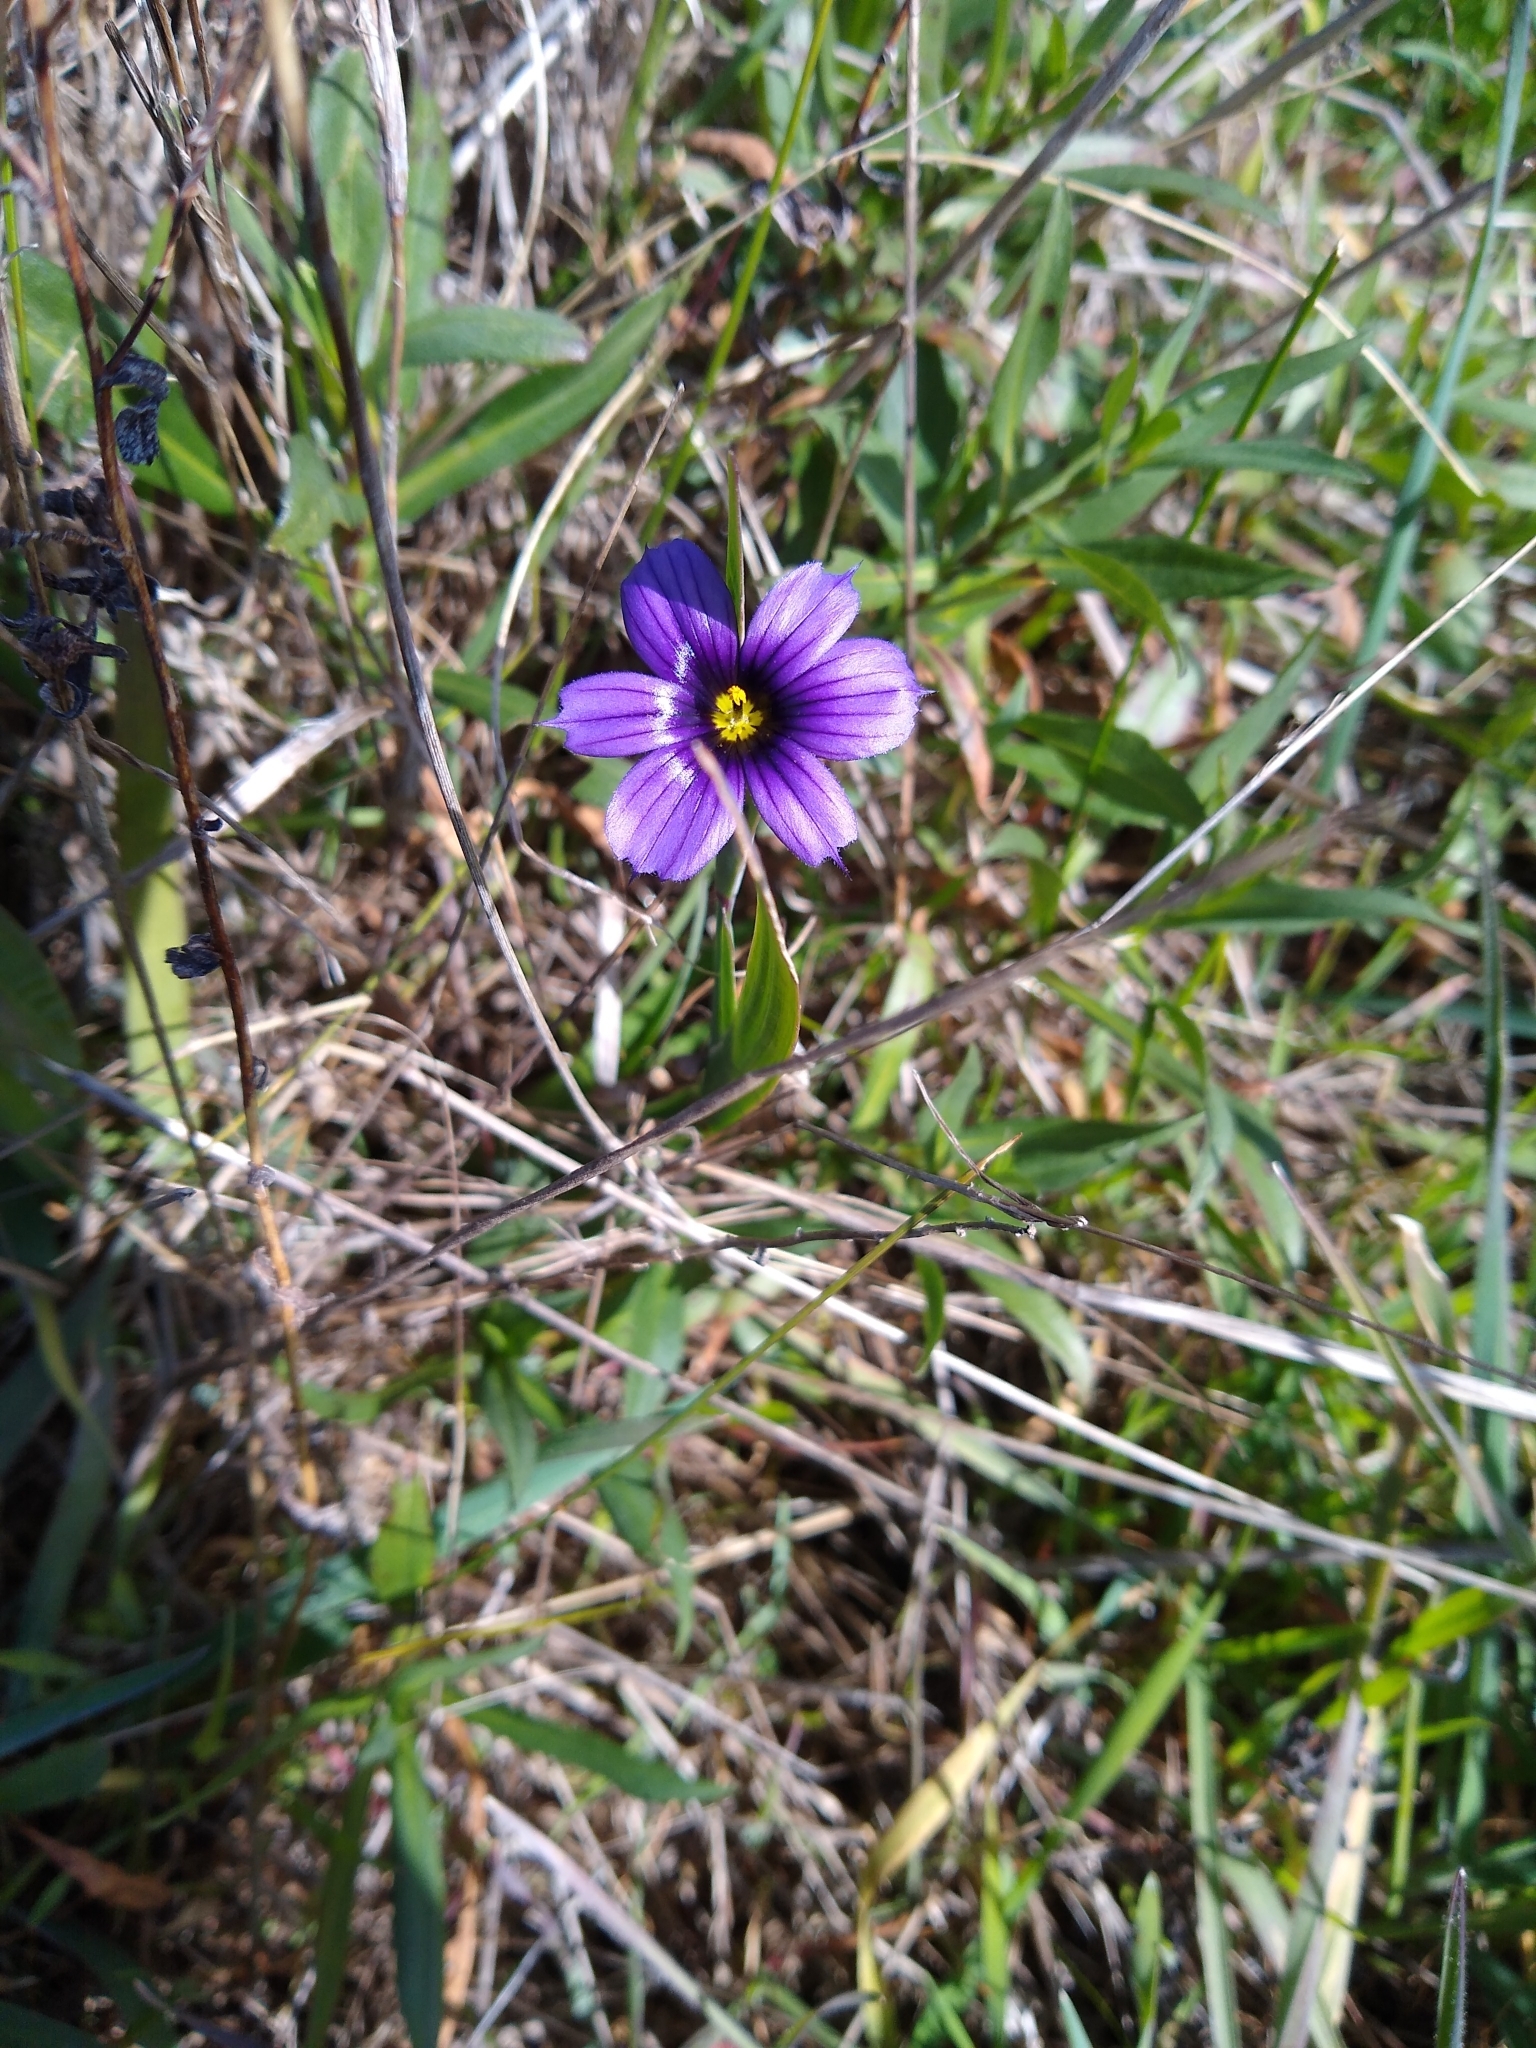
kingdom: Plantae
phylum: Tracheophyta
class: Liliopsida
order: Asparagales
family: Iridaceae
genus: Sisyrinchium
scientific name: Sisyrinchium bellum
